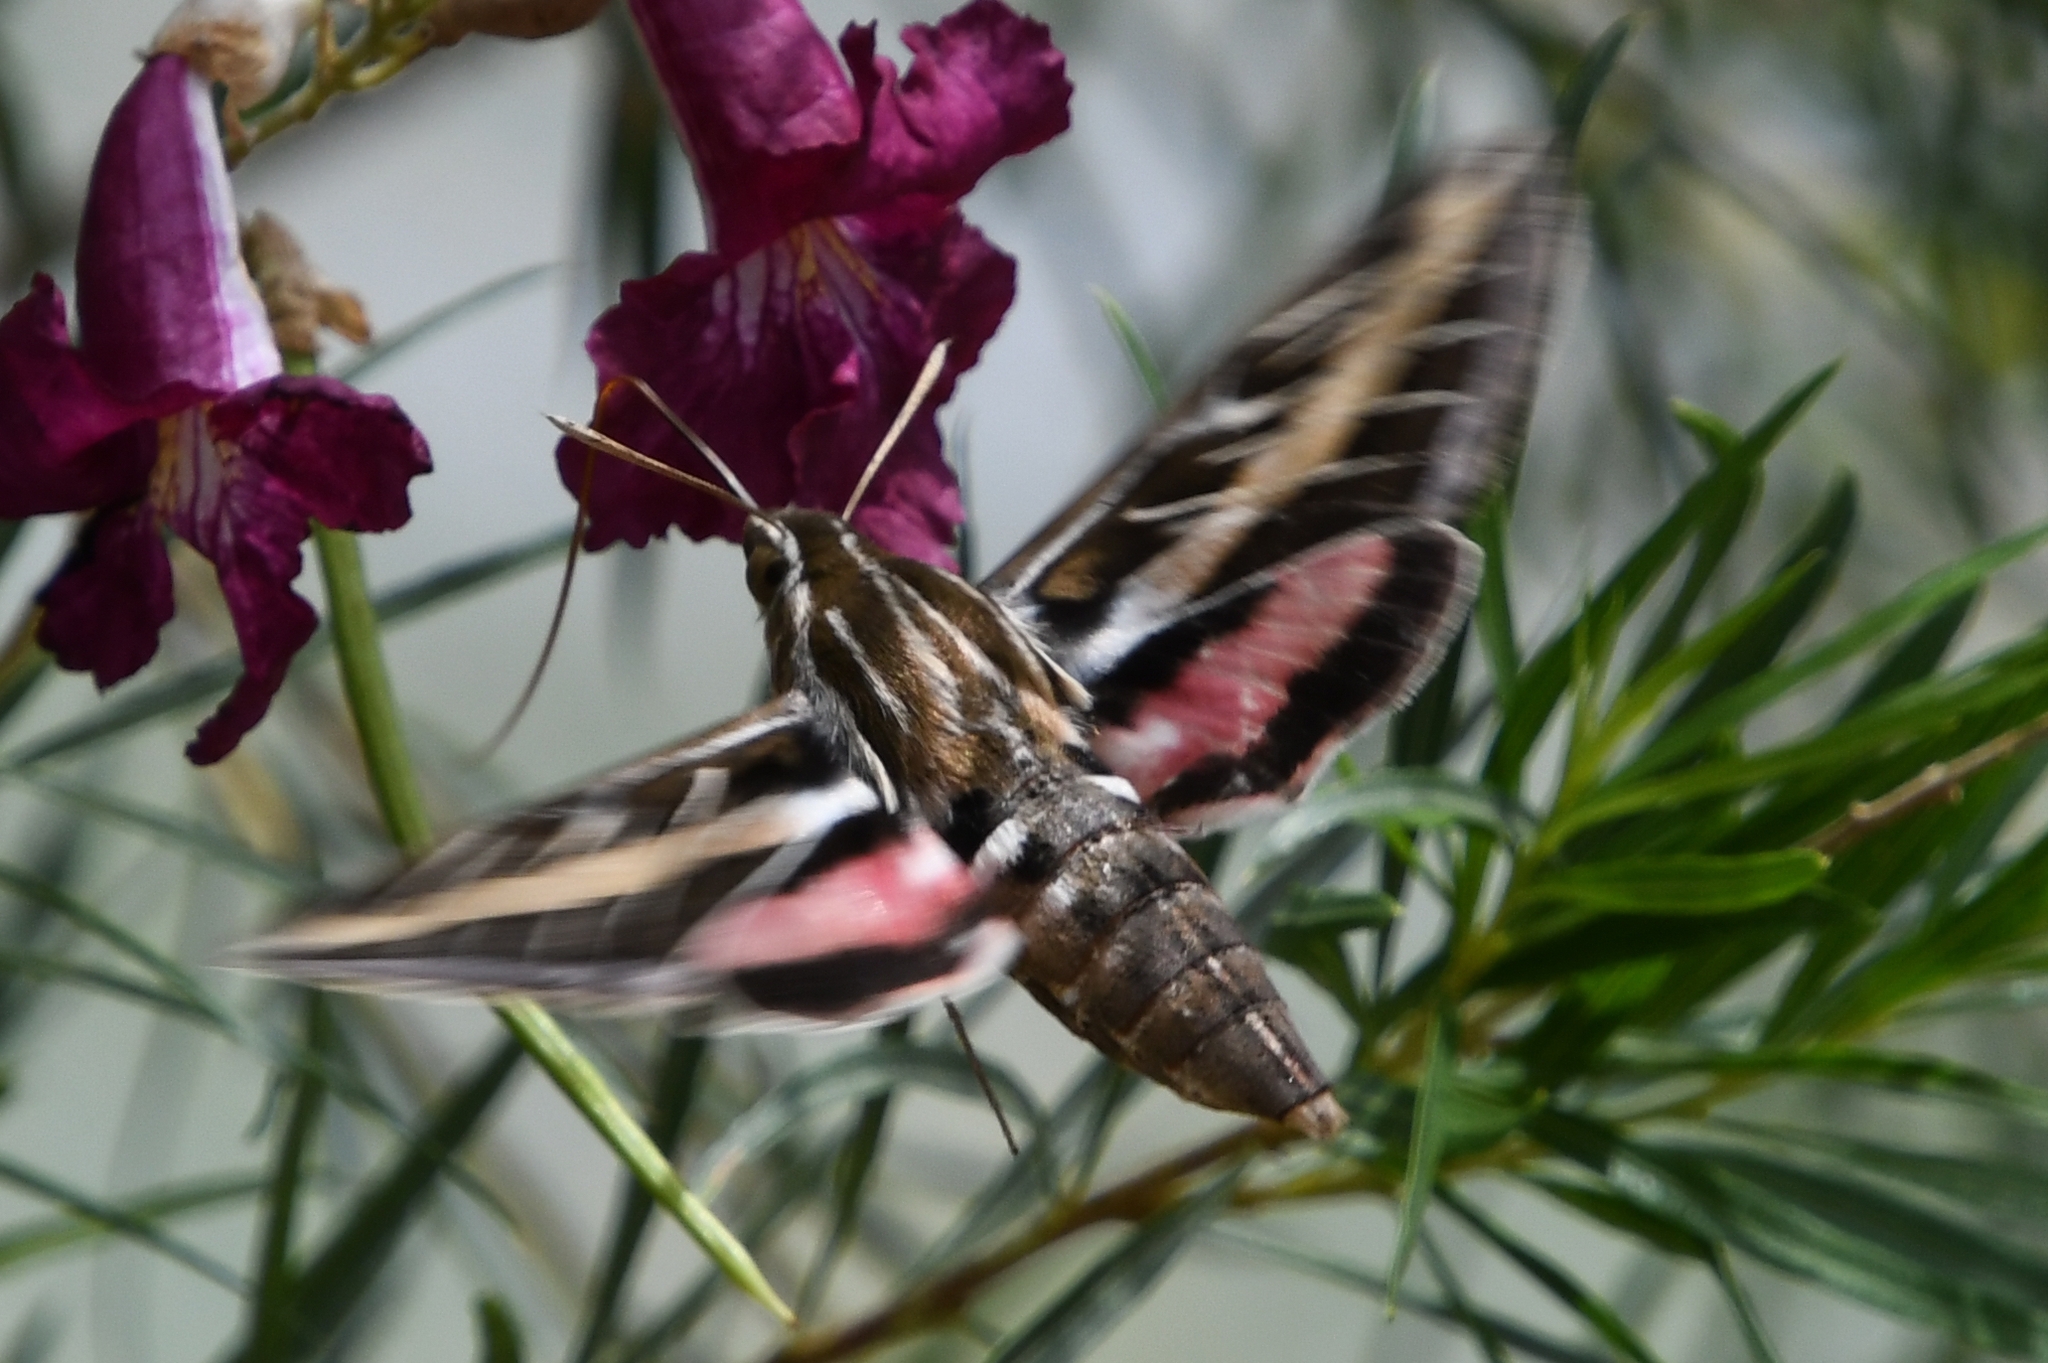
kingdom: Animalia
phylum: Arthropoda
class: Insecta
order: Lepidoptera
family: Sphingidae
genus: Hyles
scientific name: Hyles lineata
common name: White-lined sphinx
